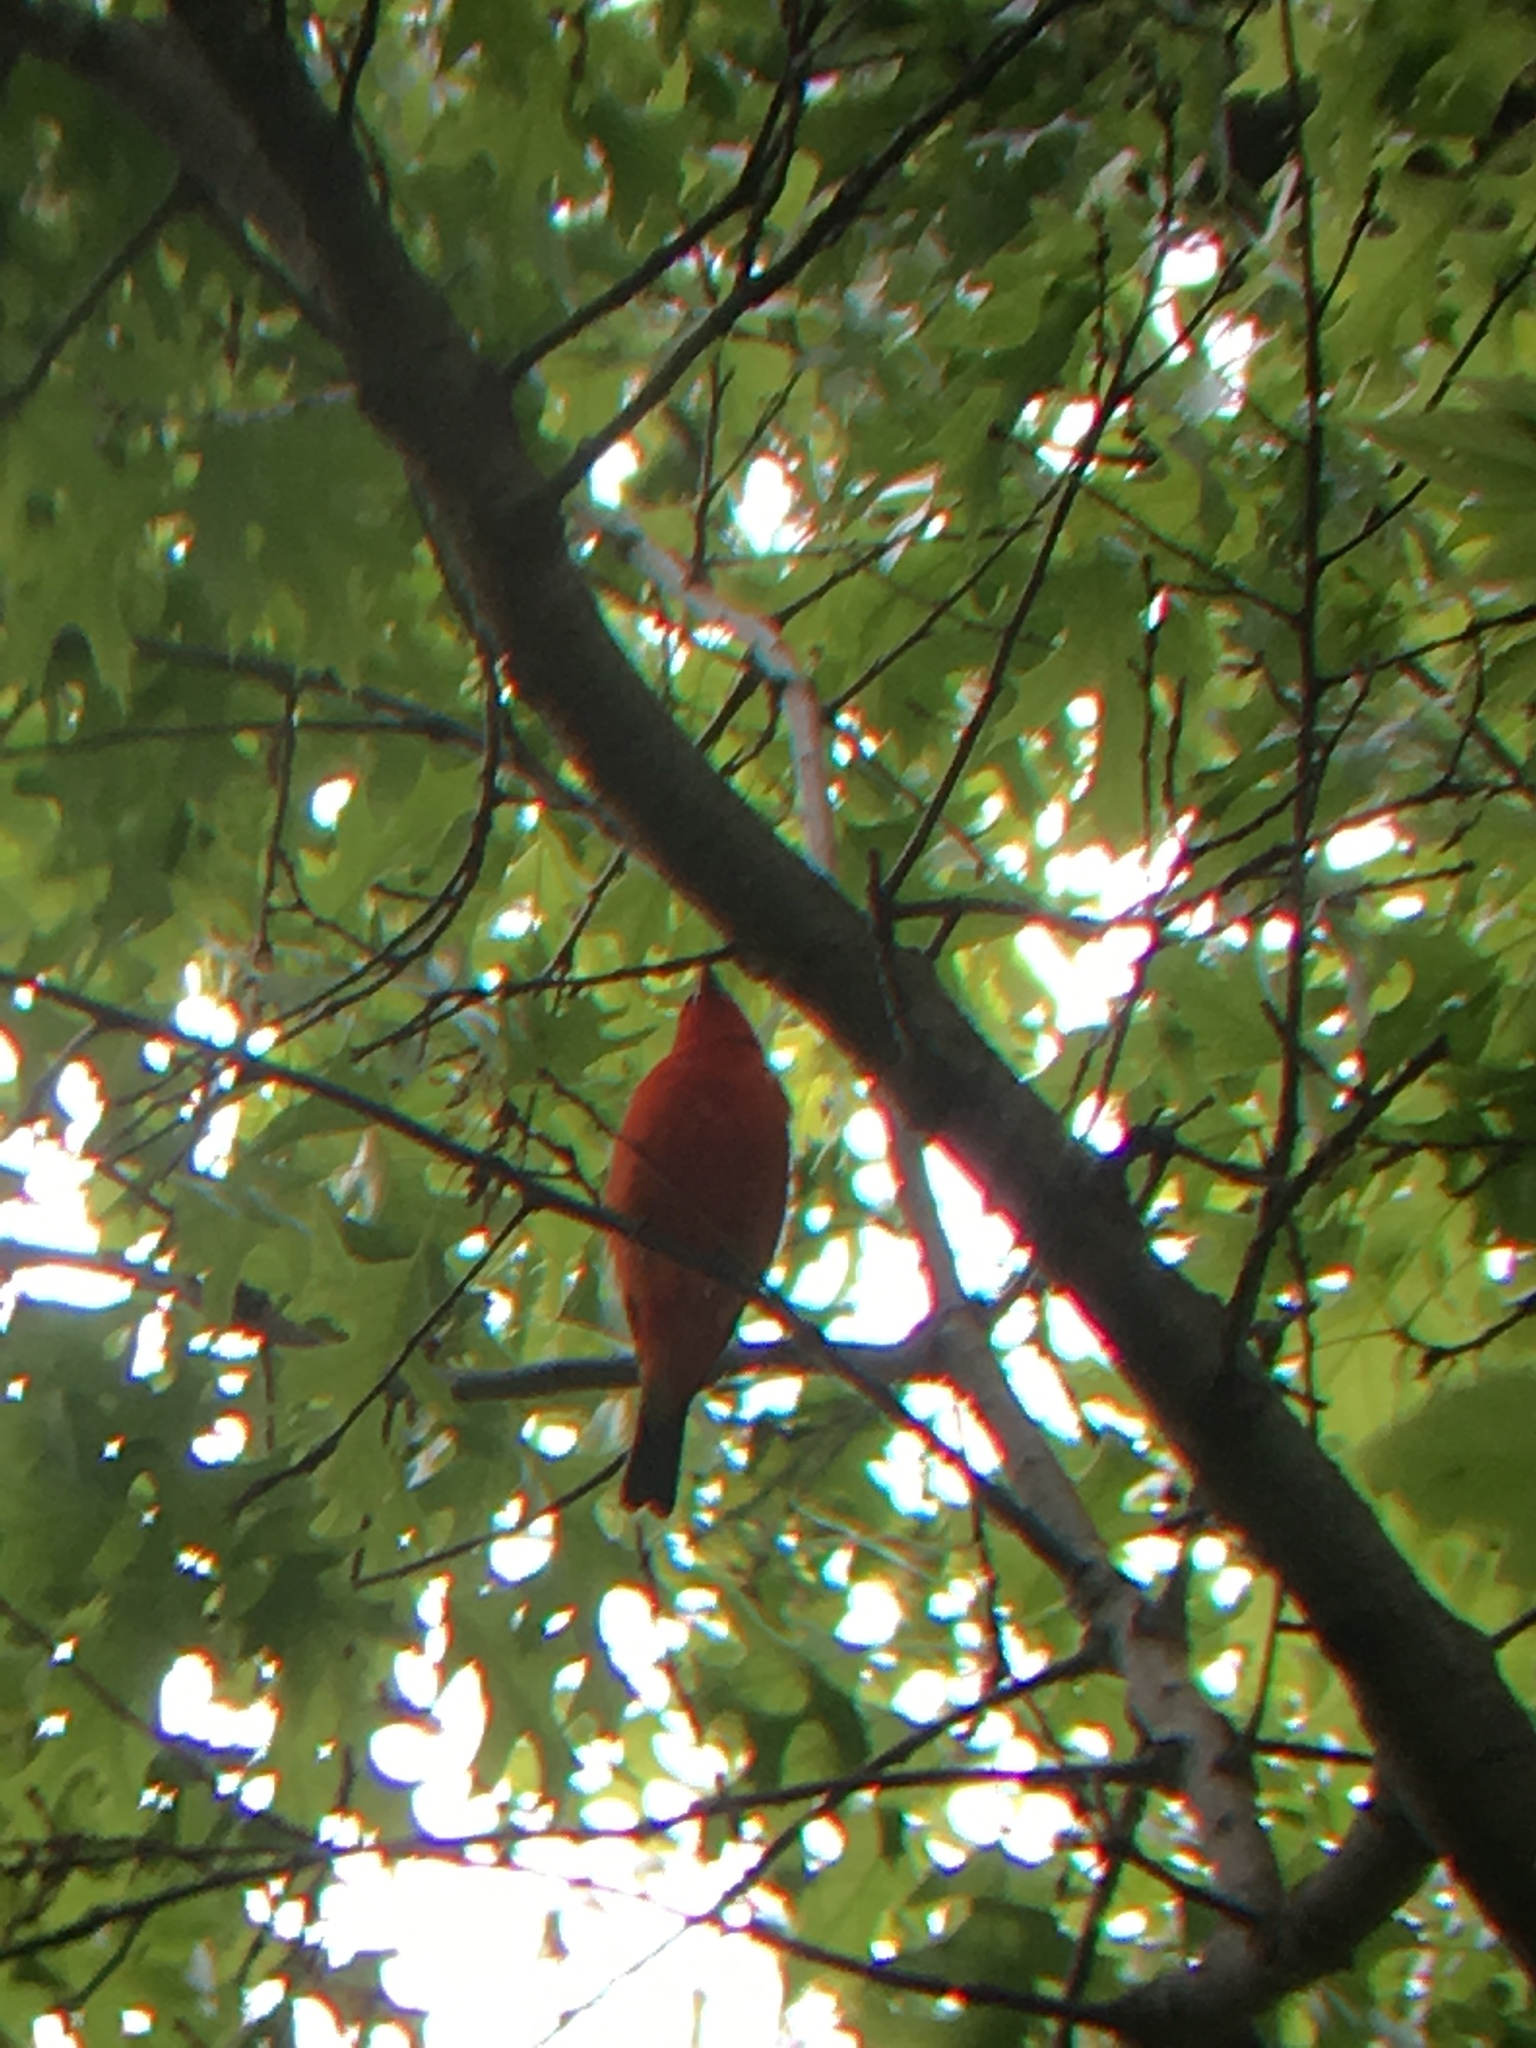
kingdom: Animalia
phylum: Chordata
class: Aves
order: Passeriformes
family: Cardinalidae
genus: Piranga
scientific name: Piranga olivacea
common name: Scarlet tanager
